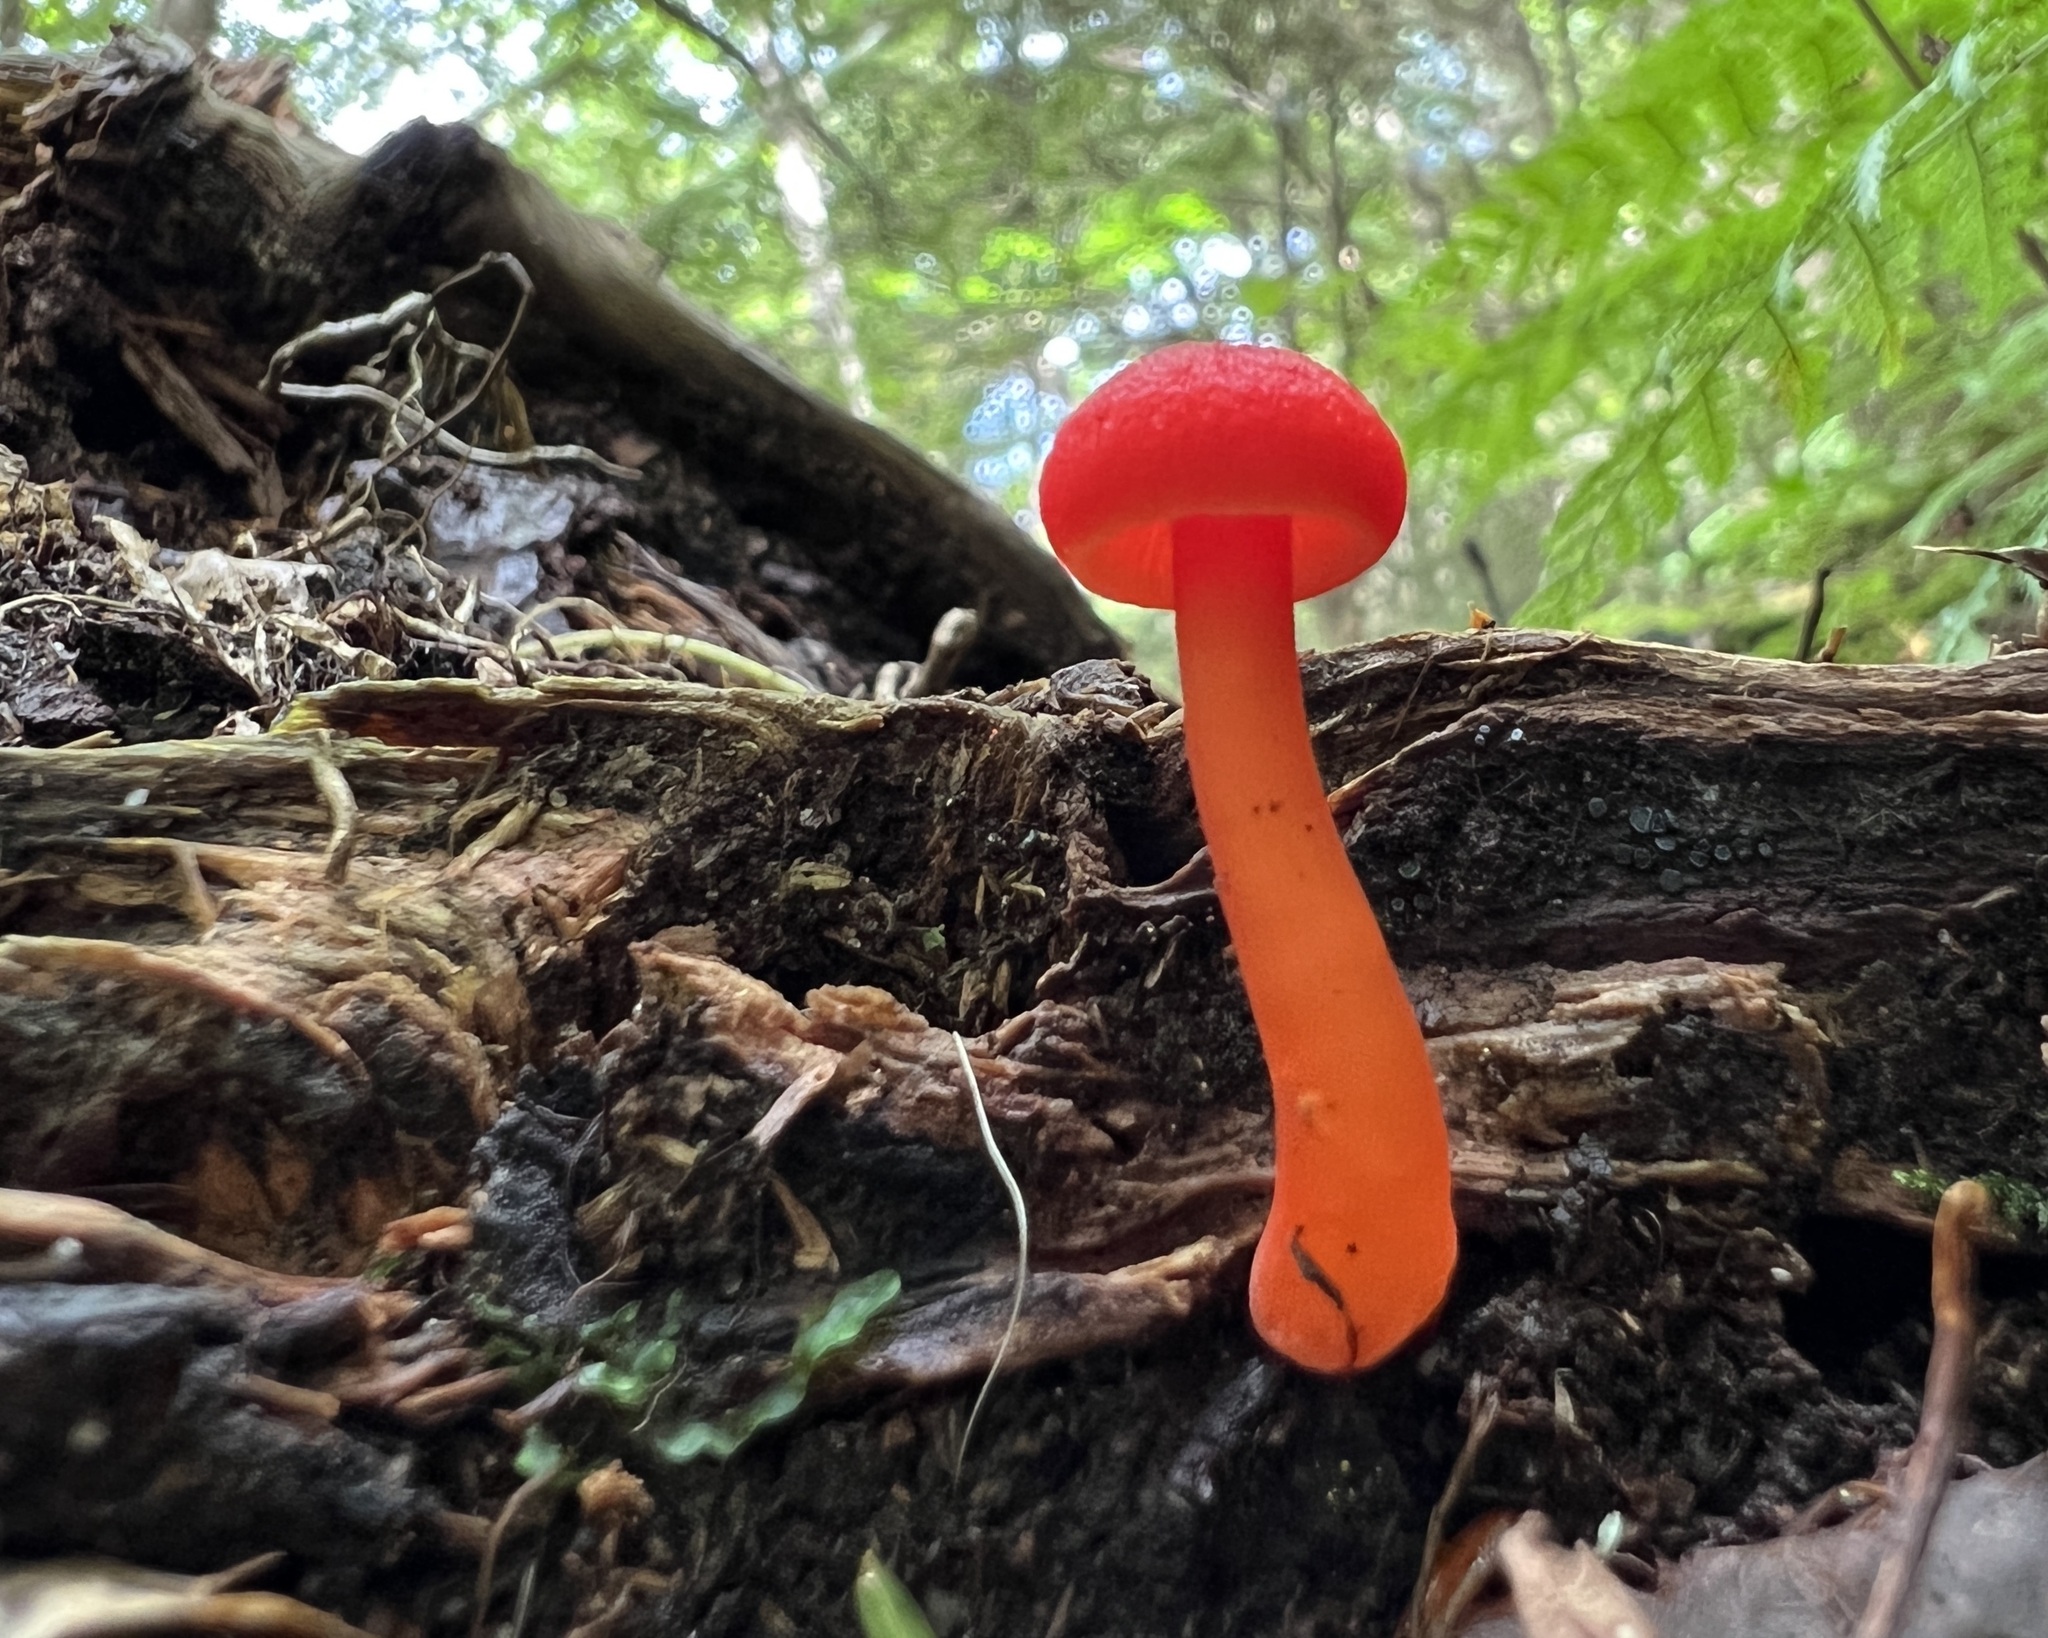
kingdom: Fungi
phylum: Basidiomycota
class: Agaricomycetes
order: Agaricales
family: Hygrophoraceae
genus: Hygrocybe
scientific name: Hygrocybe miniata
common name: Vermilion waxcap
